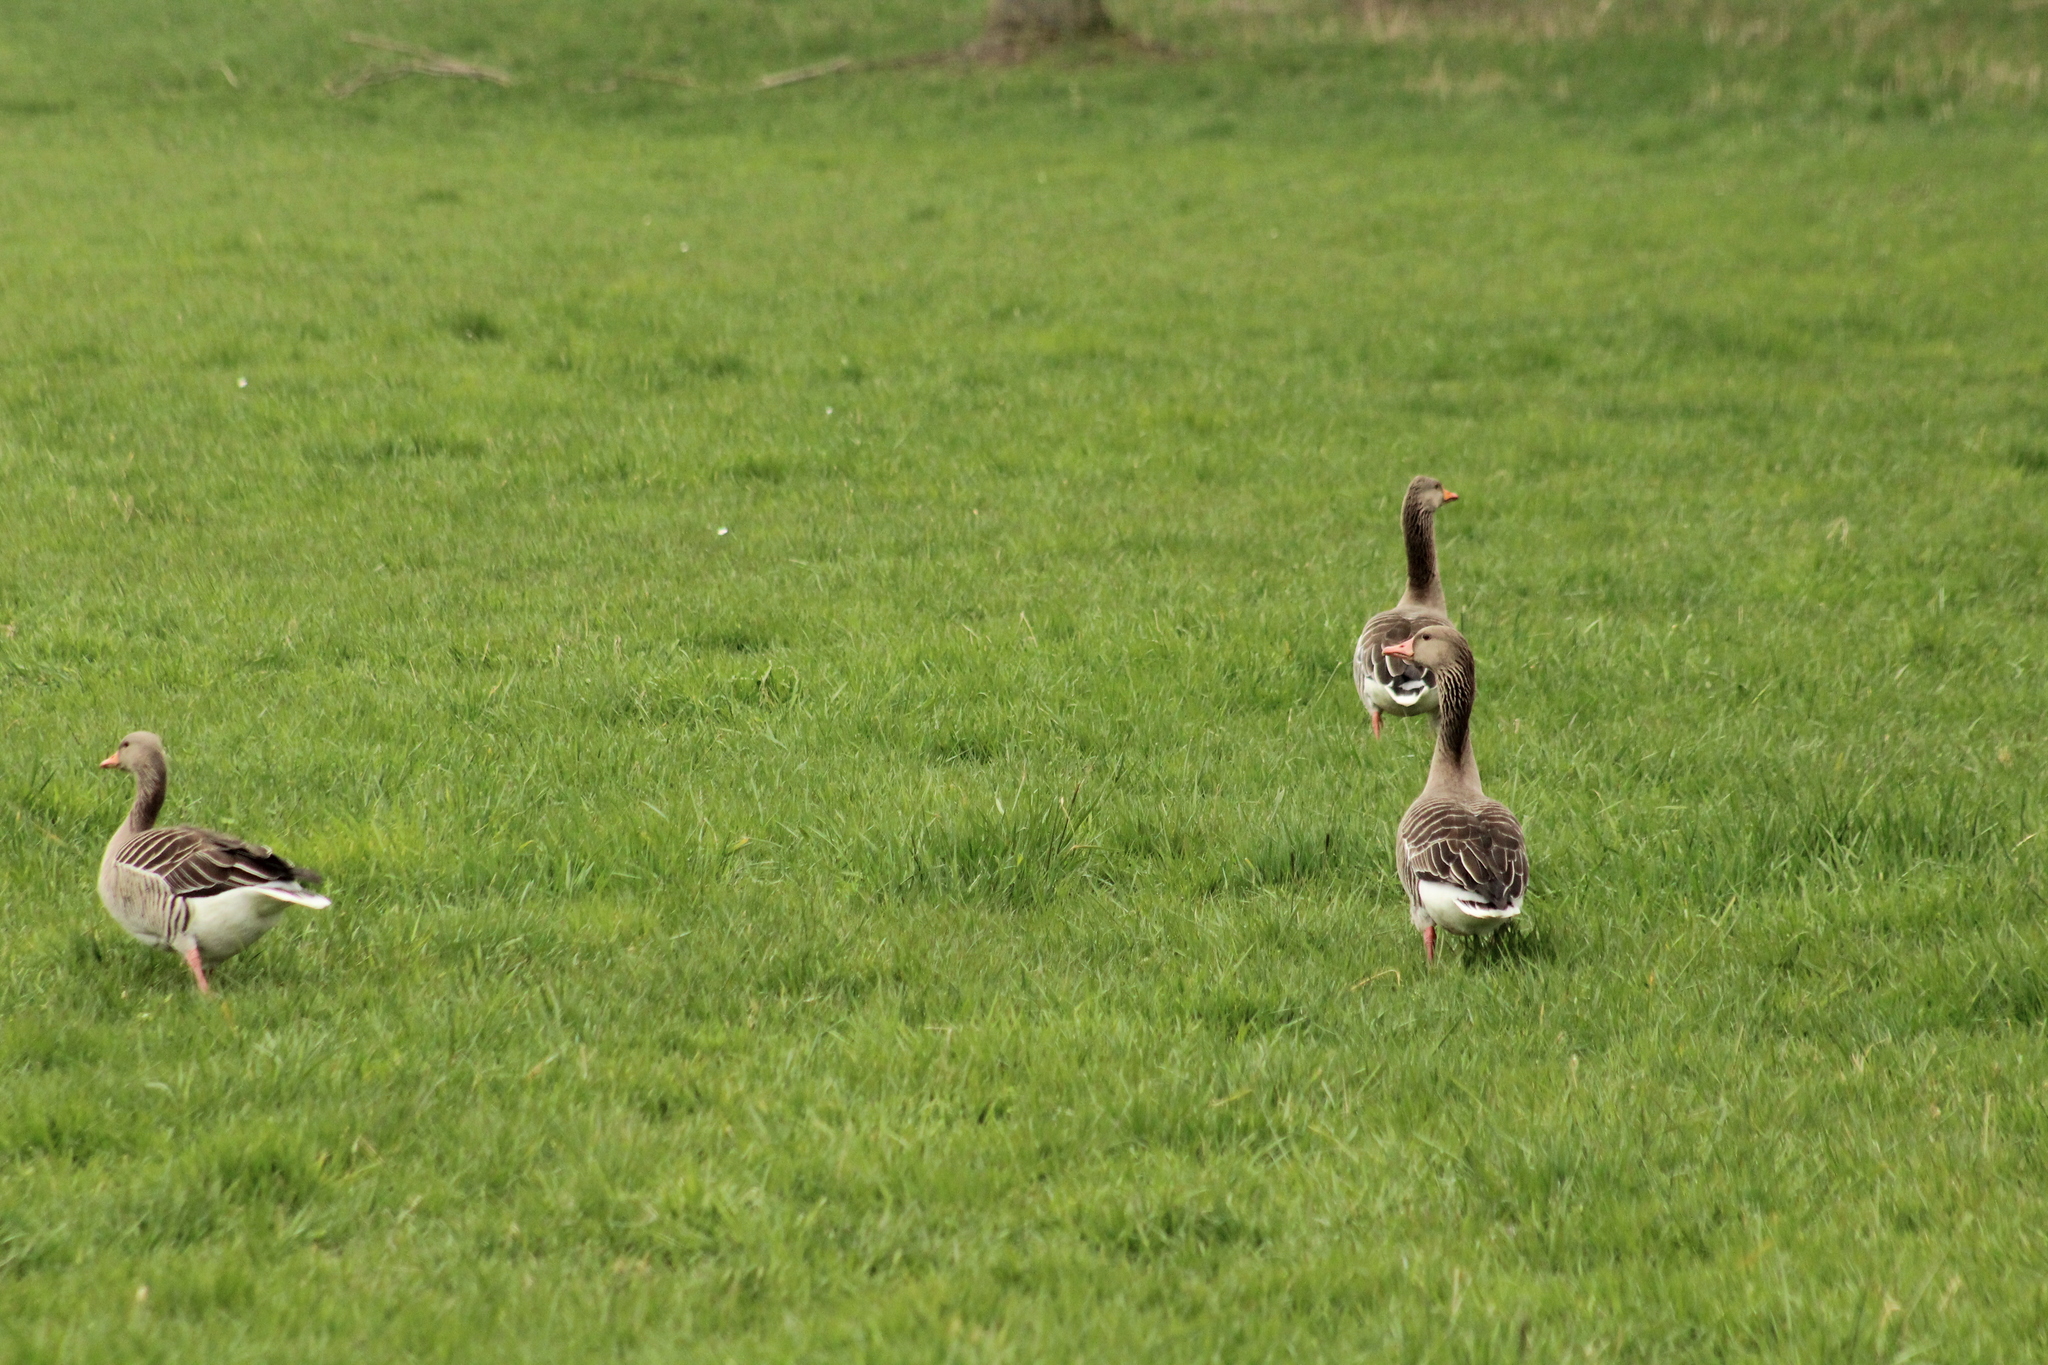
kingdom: Animalia
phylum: Chordata
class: Aves
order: Anseriformes
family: Anatidae
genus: Anser
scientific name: Anser anser
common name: Greylag goose
